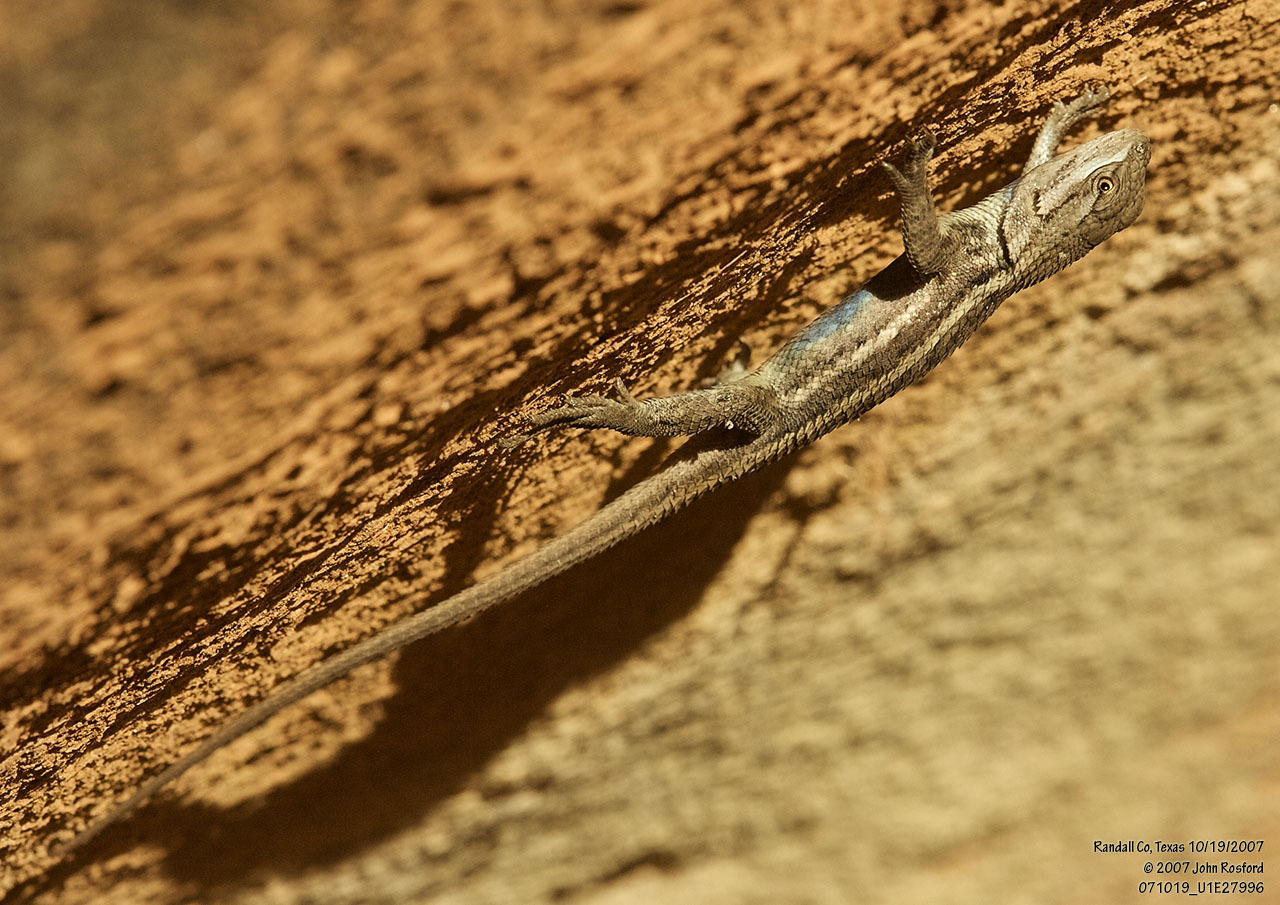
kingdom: Animalia
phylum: Chordata
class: Squamata
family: Phrynosomatidae
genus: Sceloporus
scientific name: Sceloporus consobrinus
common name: Southern prairie lizard
